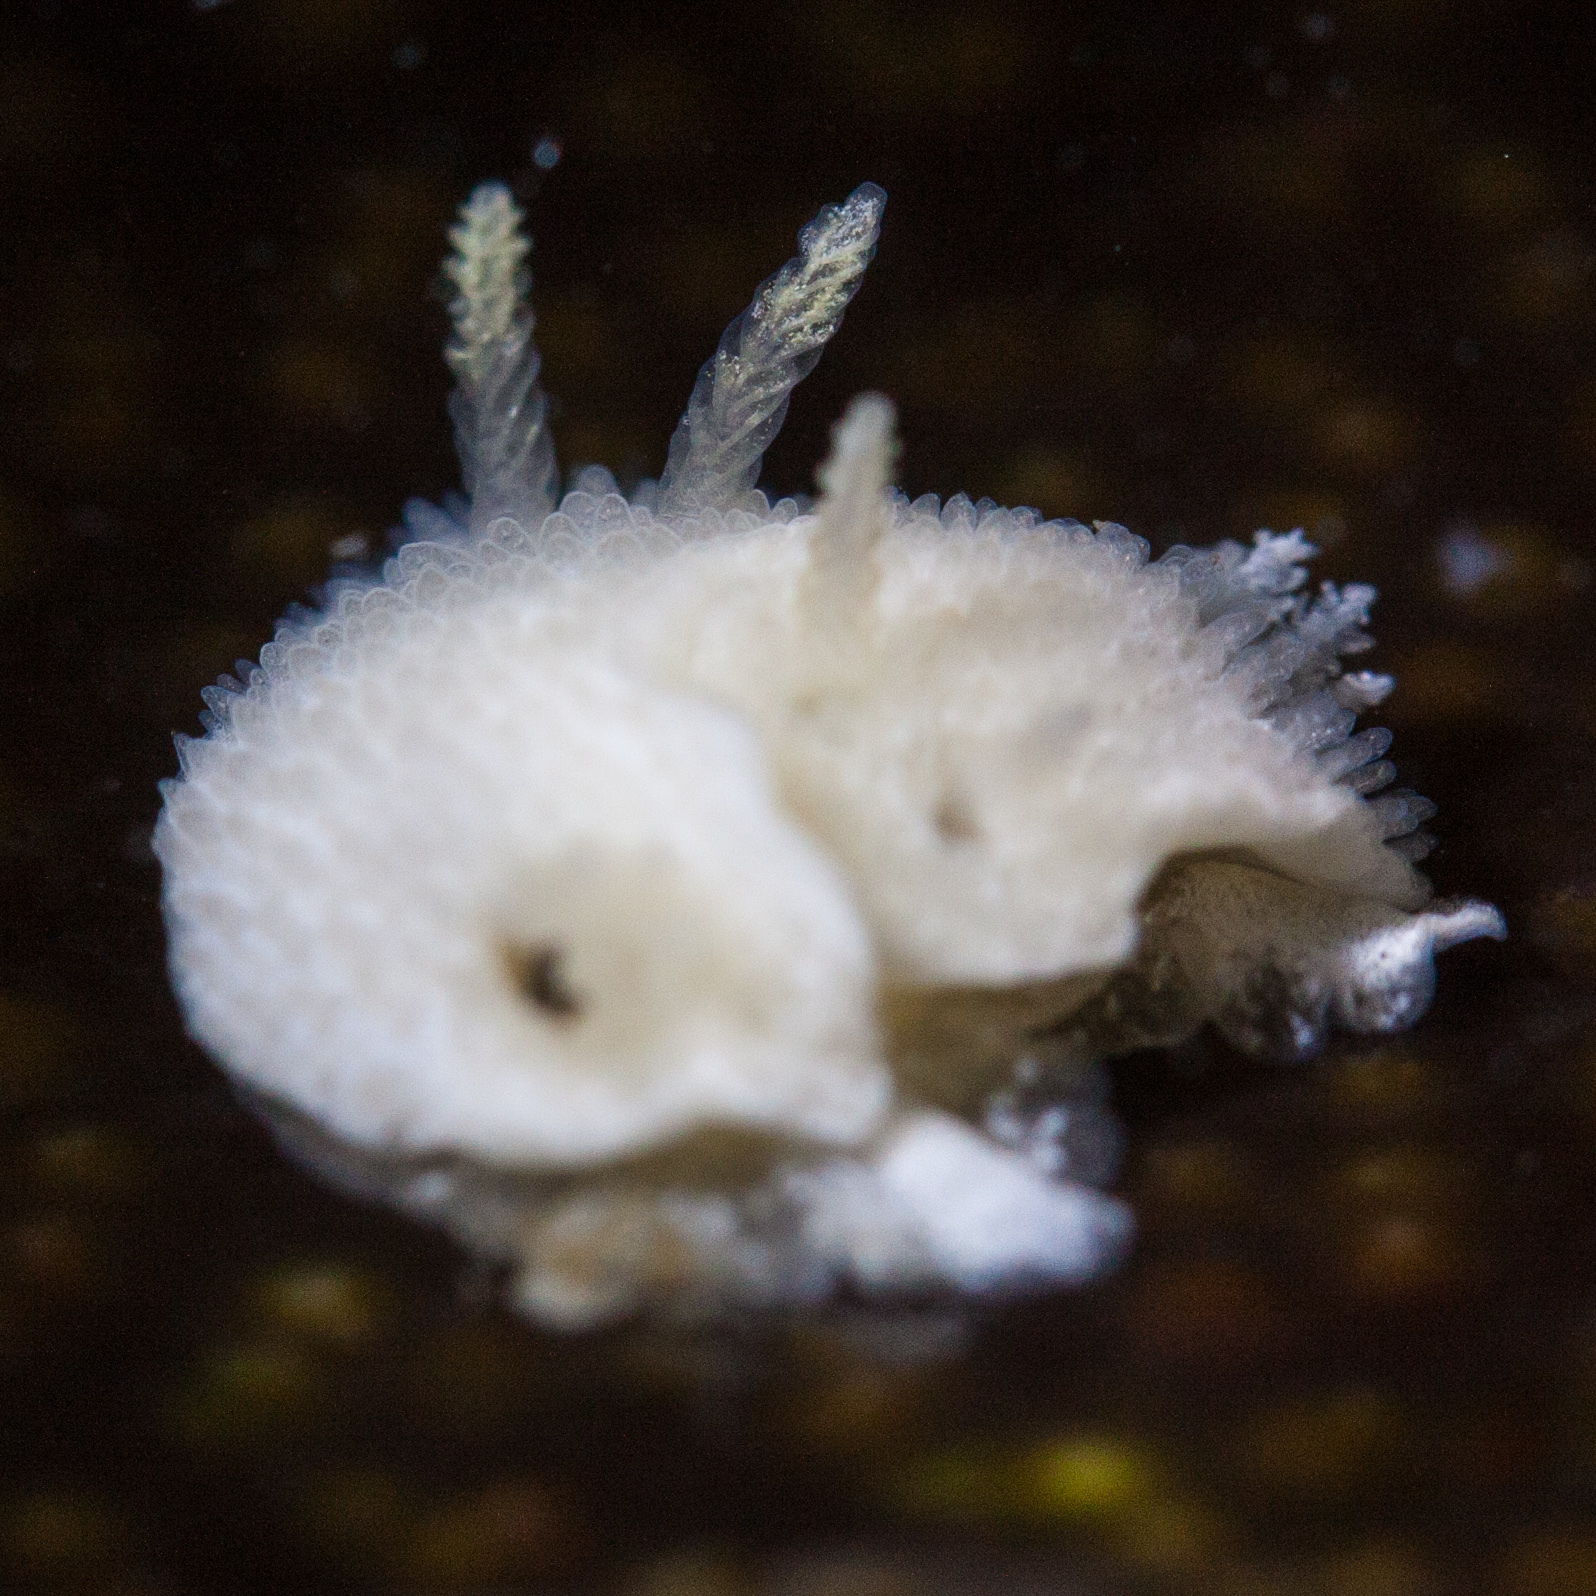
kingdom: Animalia
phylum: Mollusca
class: Gastropoda
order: Nudibranchia
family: Calycidorididae
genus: Diaphorodoris
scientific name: Diaphorodoris lirulatocauda
